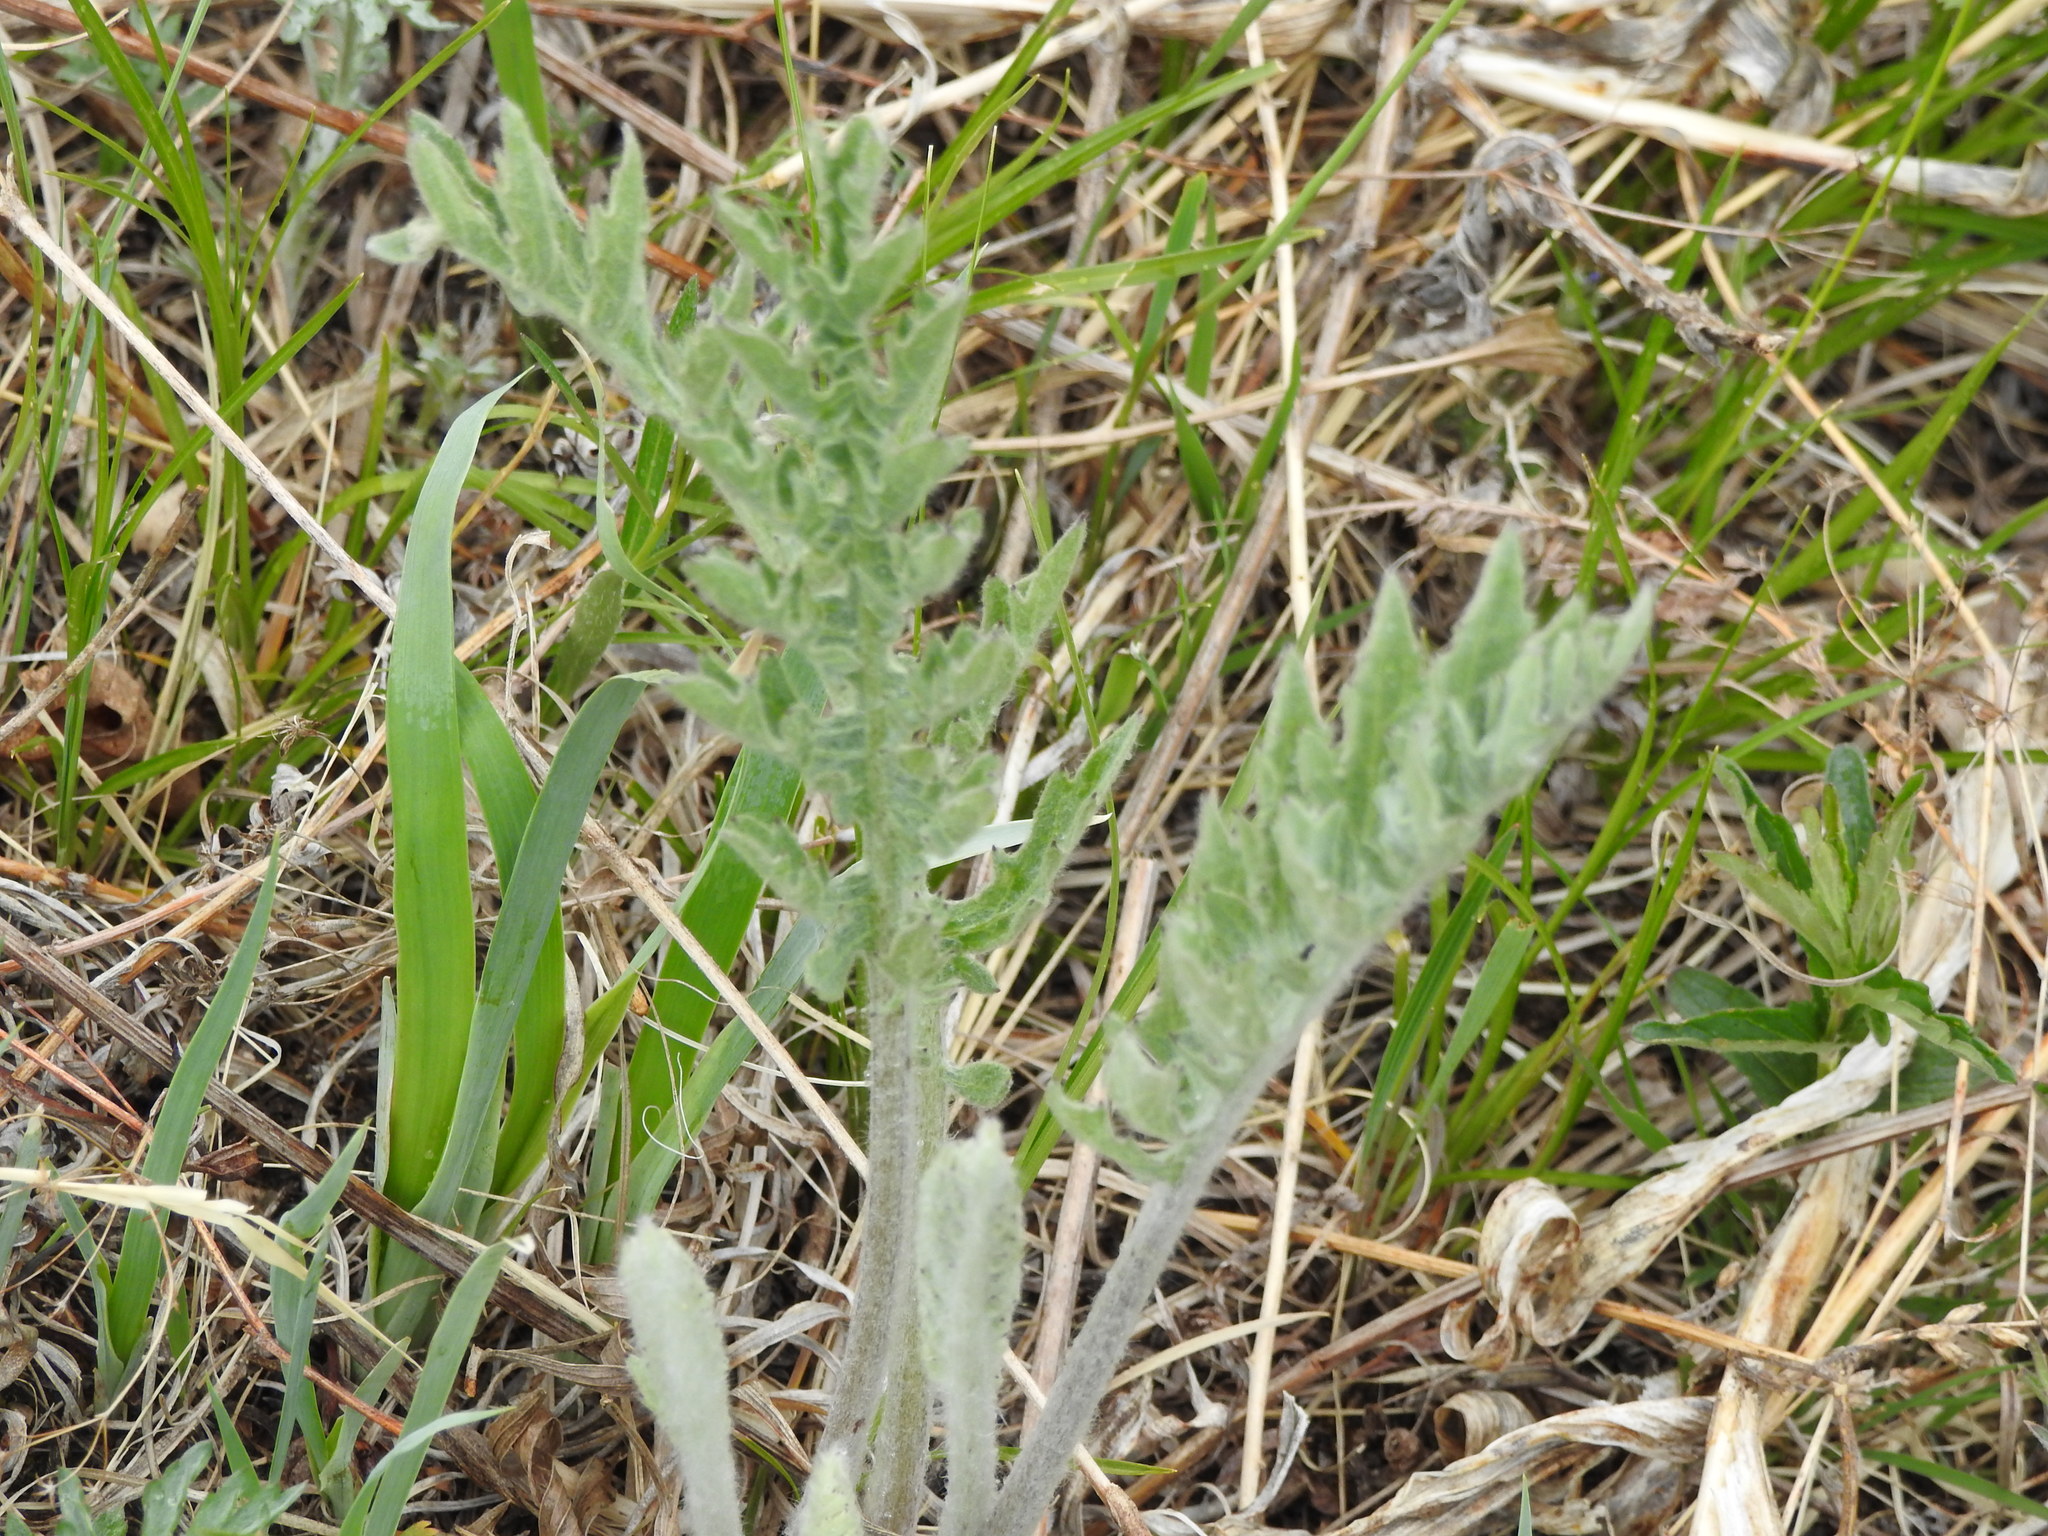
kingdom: Plantae
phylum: Tracheophyta
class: Magnoliopsida
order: Asterales
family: Asteraceae
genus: Echinops
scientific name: Echinops davuricus
